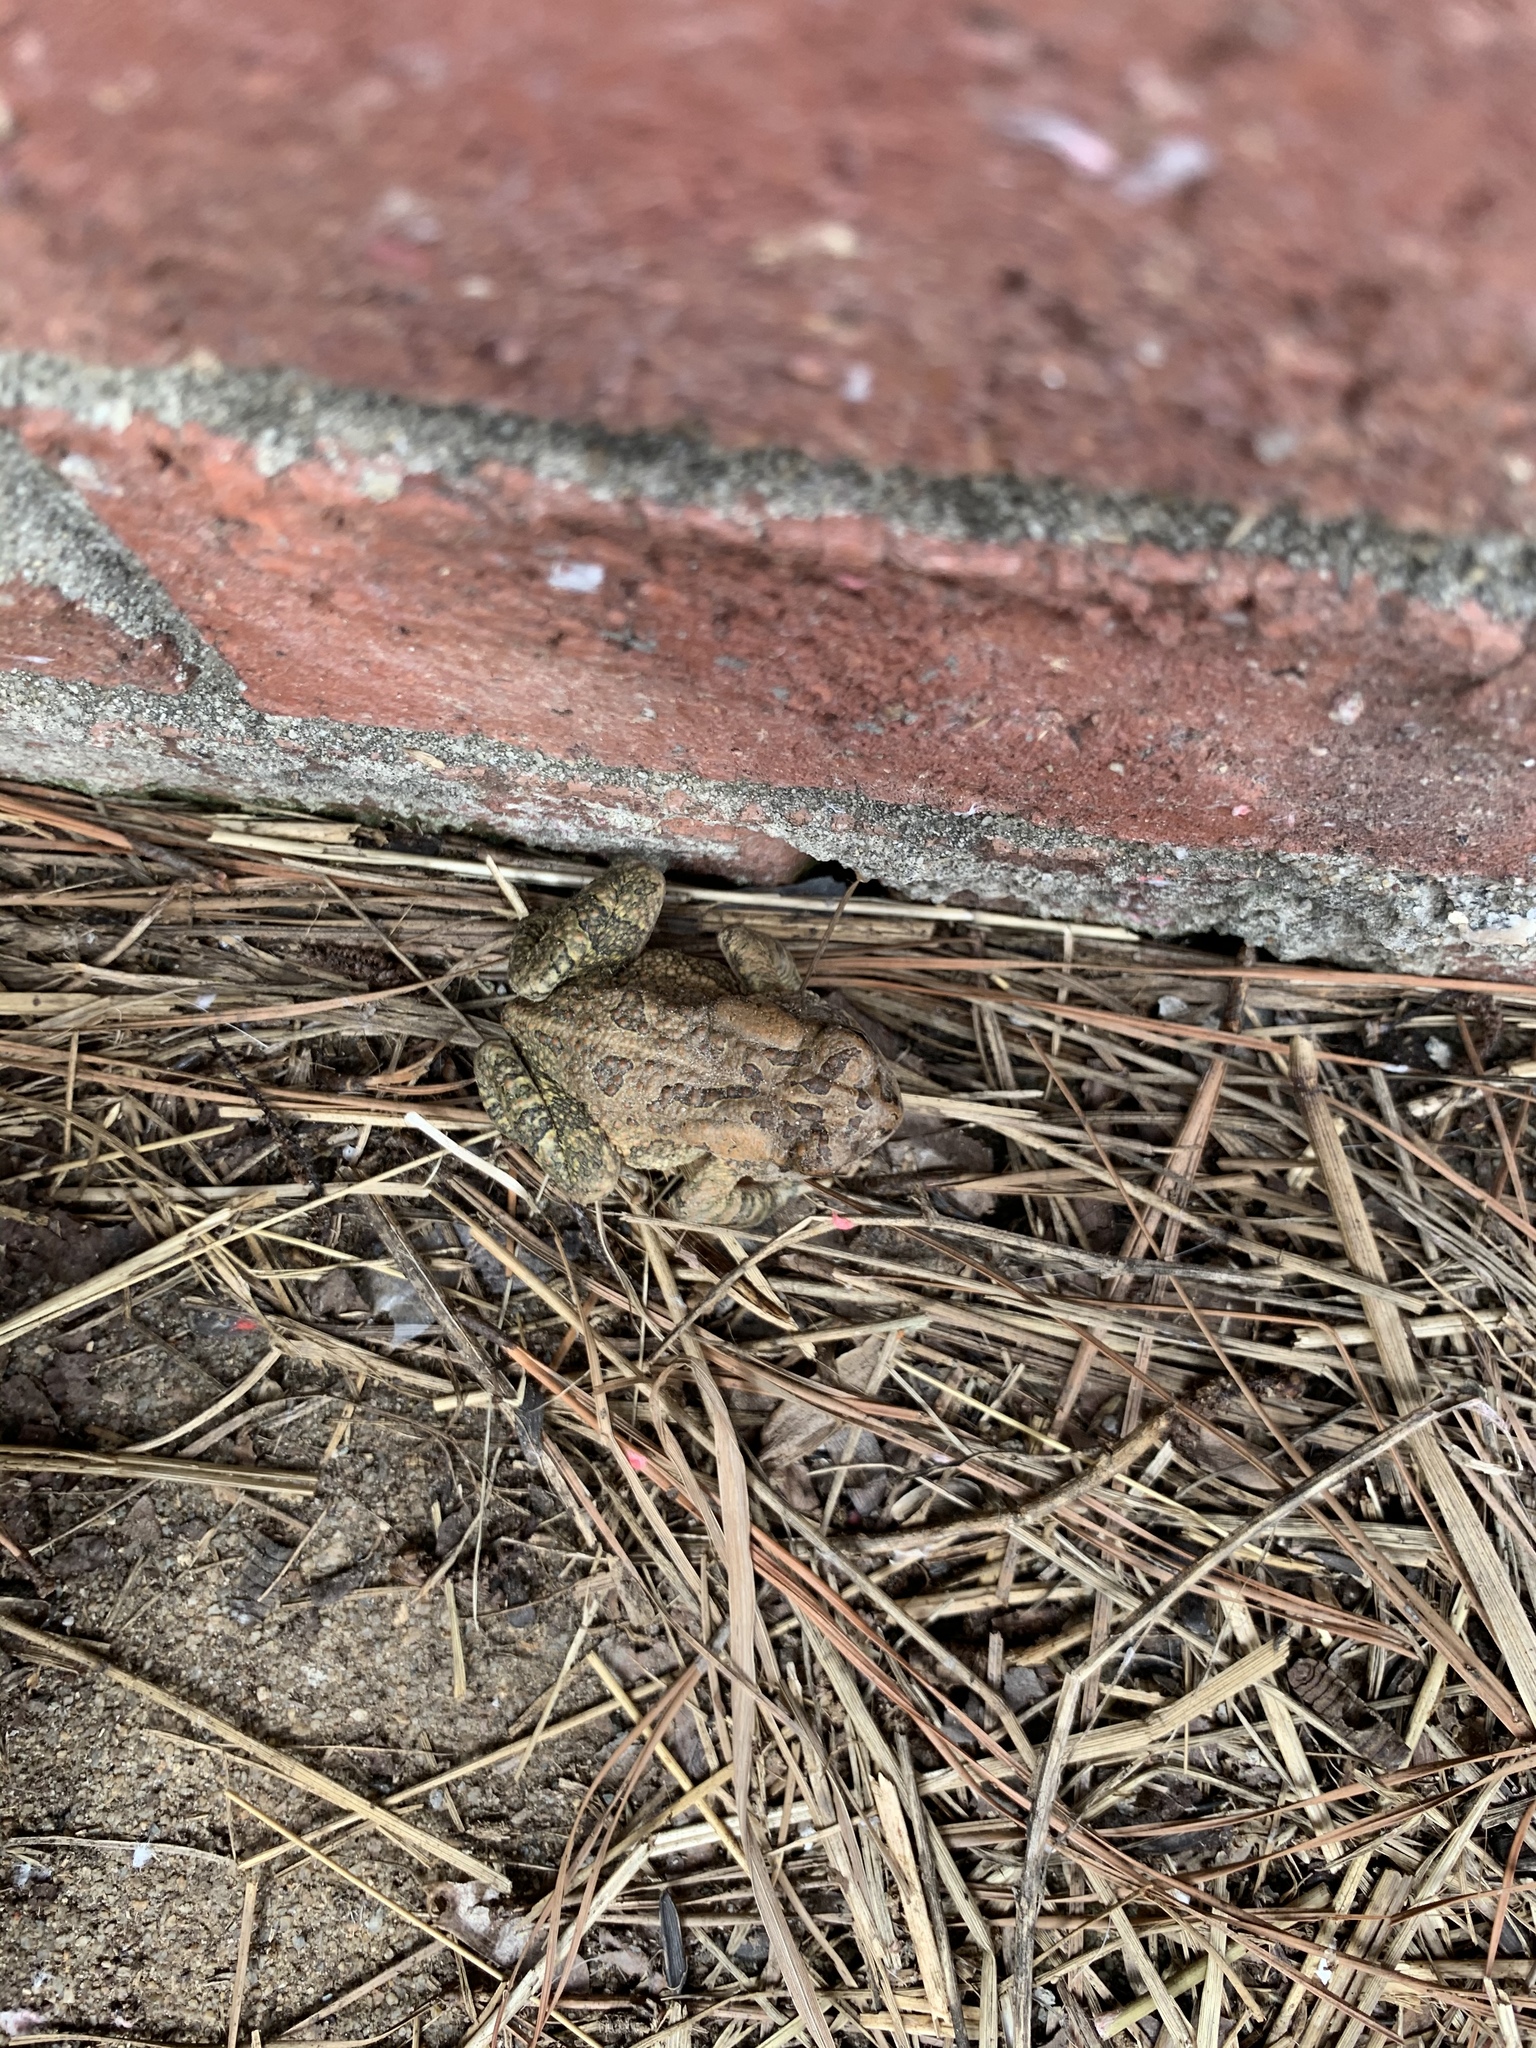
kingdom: Animalia
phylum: Chordata
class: Amphibia
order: Anura
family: Bufonidae
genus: Anaxyrus
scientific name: Anaxyrus fowleri
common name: Fowler's toad
